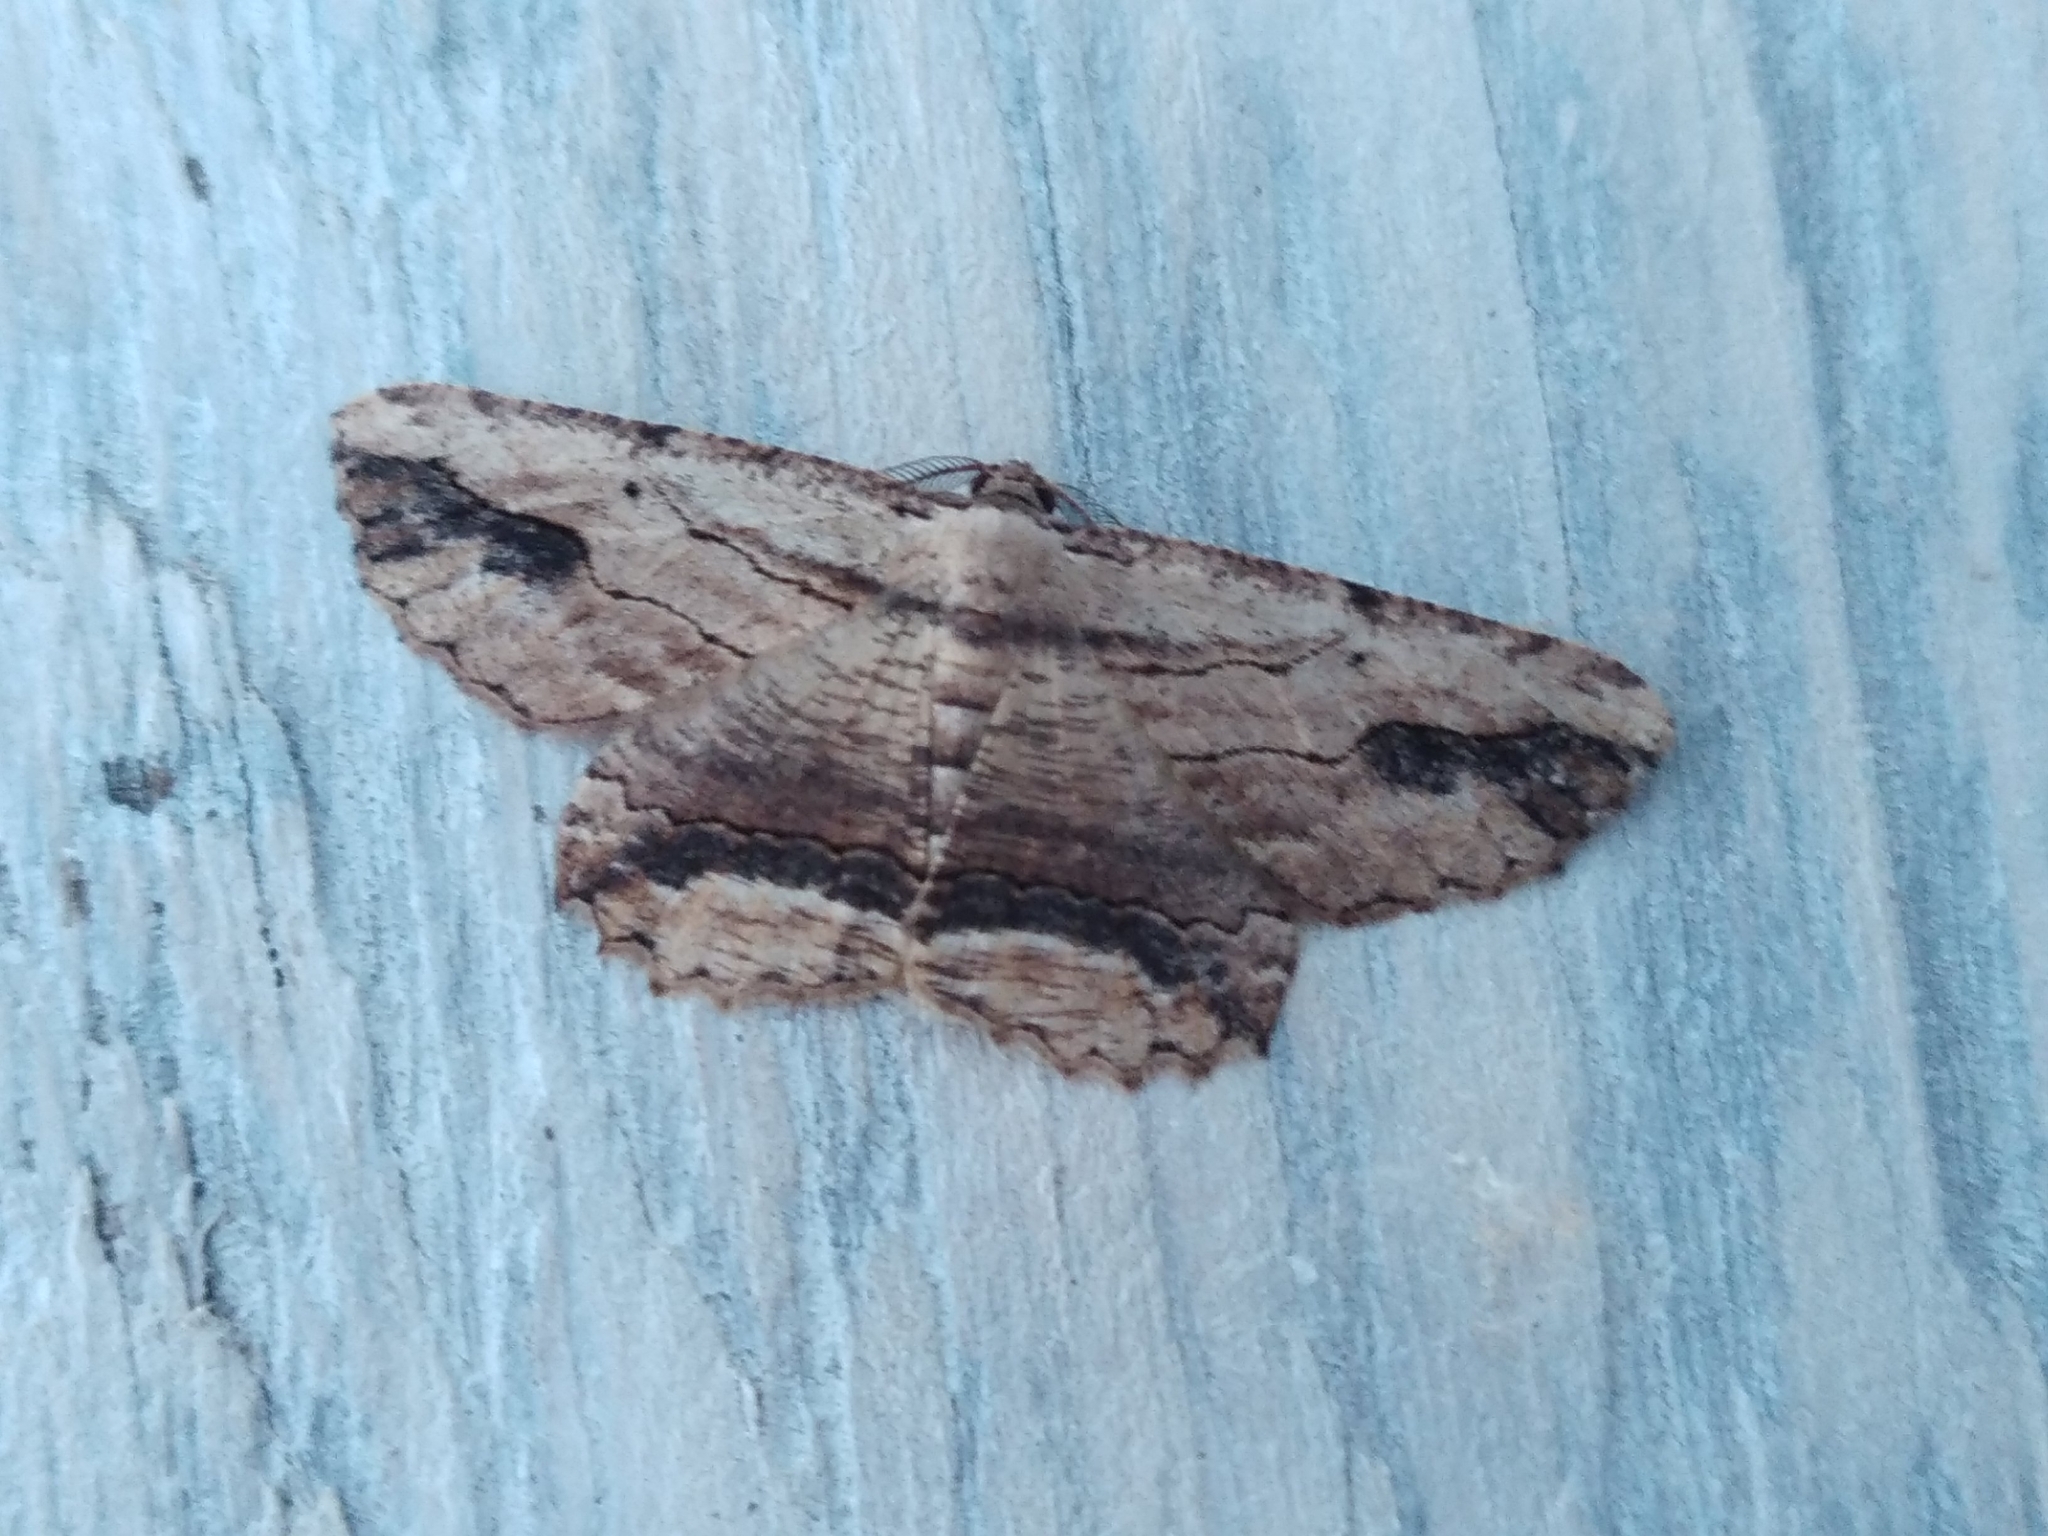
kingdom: Animalia
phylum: Arthropoda
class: Insecta
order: Lepidoptera
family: Geometridae
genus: Menophra
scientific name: Menophra abruptaria
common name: Waved umber
